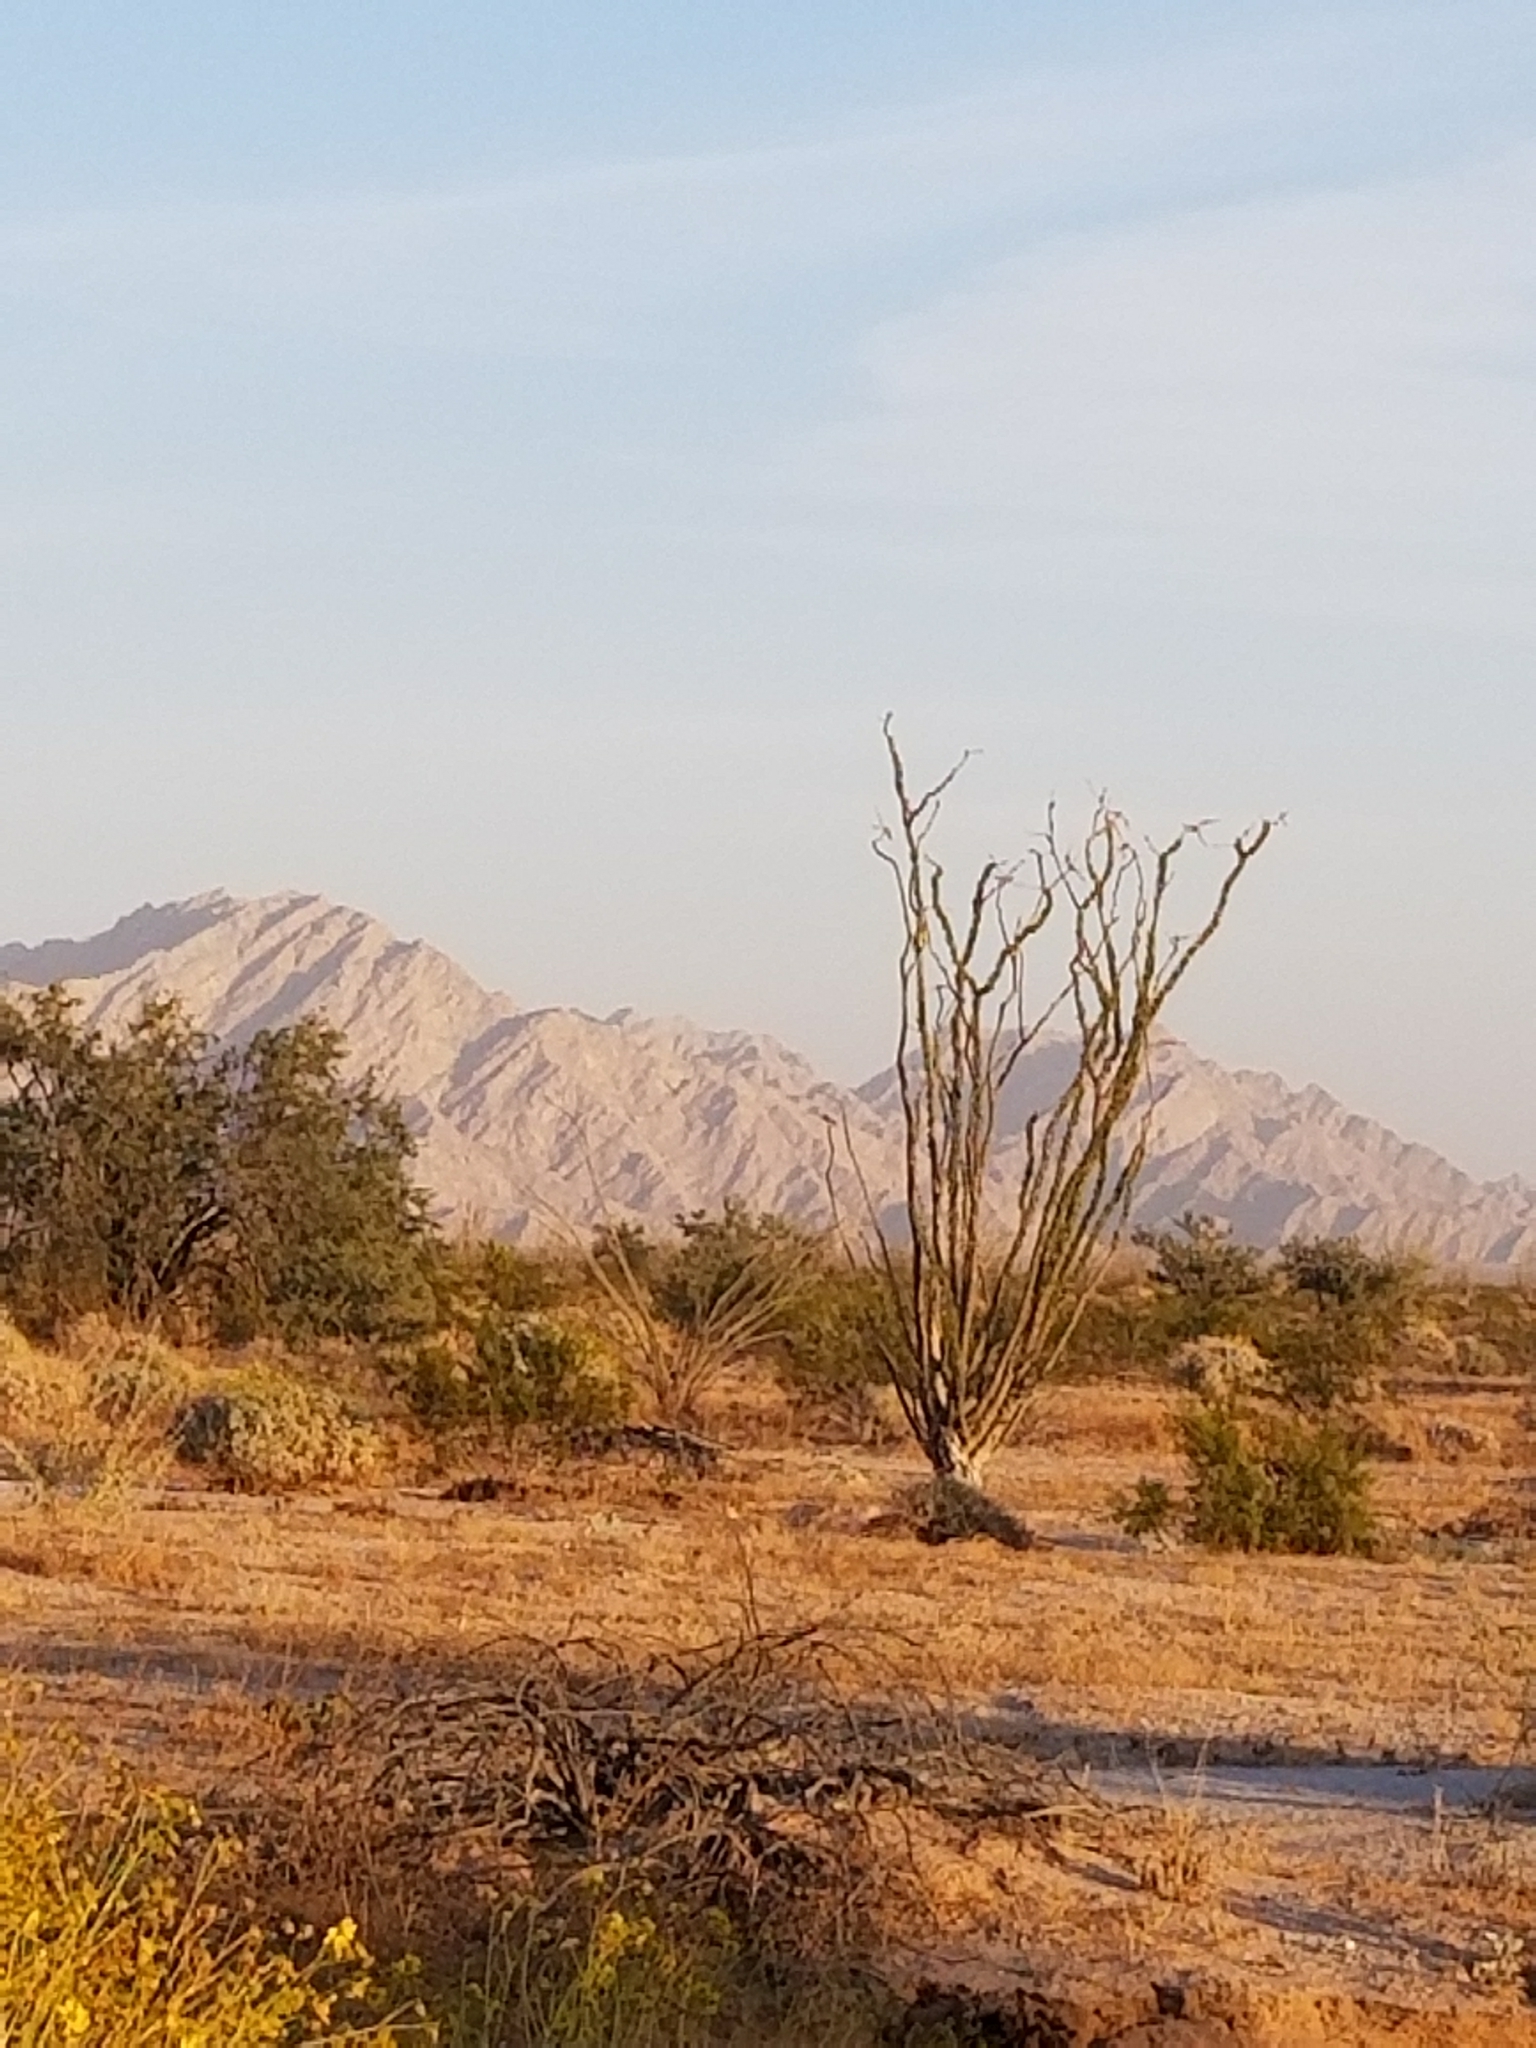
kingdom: Plantae
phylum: Tracheophyta
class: Magnoliopsida
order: Ericales
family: Fouquieriaceae
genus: Fouquieria
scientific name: Fouquieria splendens
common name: Vine-cactus
